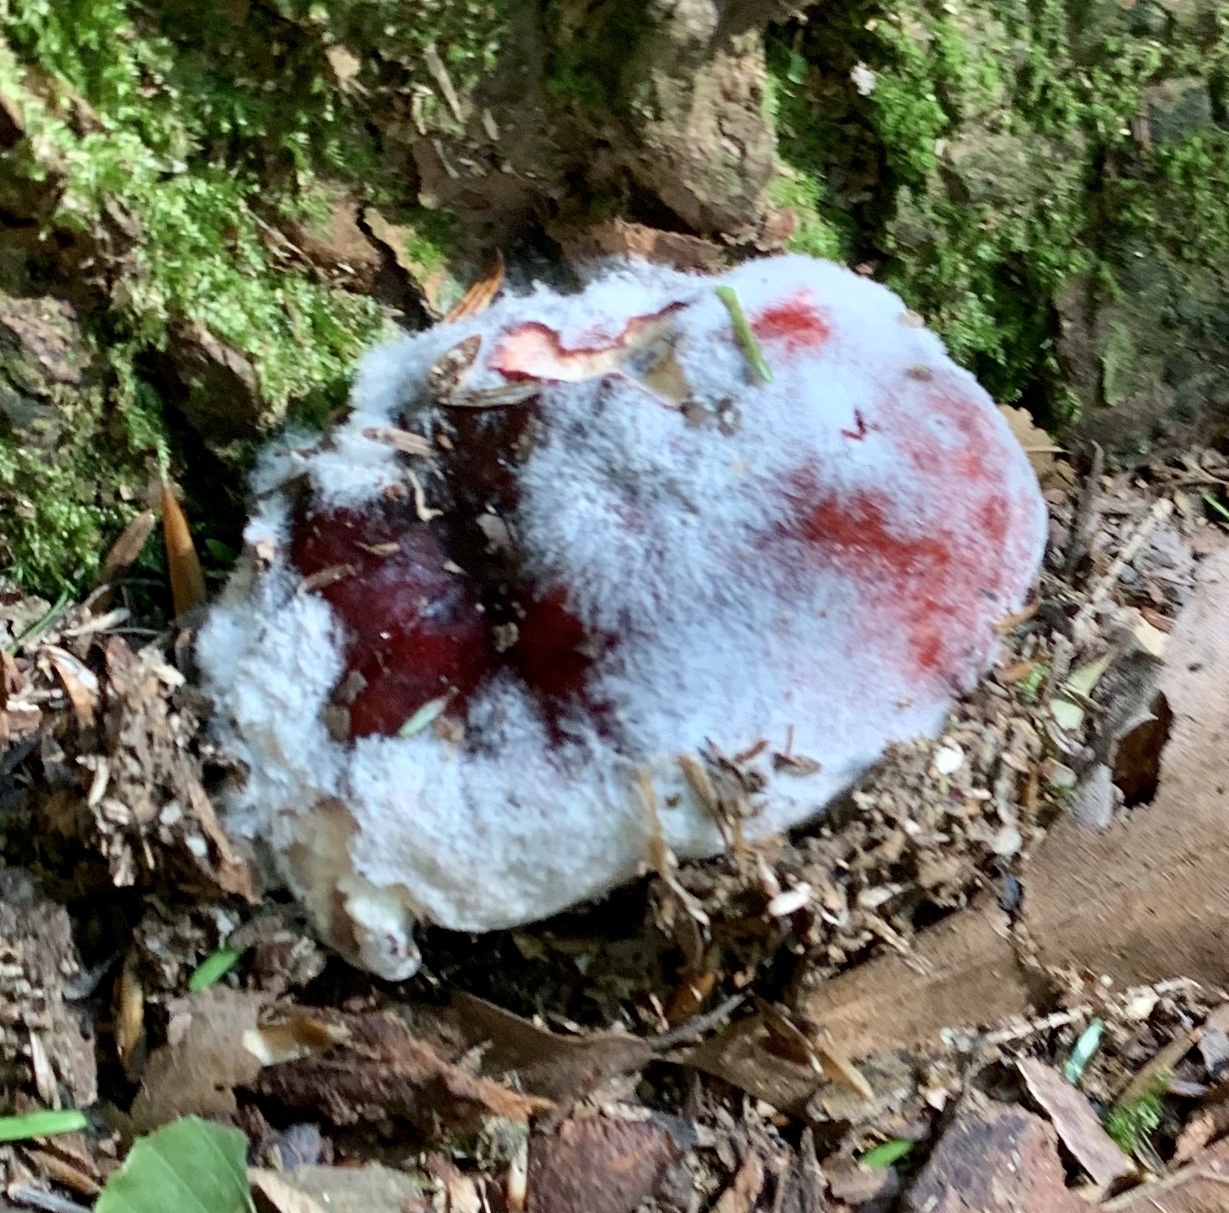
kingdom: Fungi
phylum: Mucoromycota
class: Mucoromycetes
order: Mucorales
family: Rhizopodaceae
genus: Syzygites
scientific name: Syzygites megalocarpus
